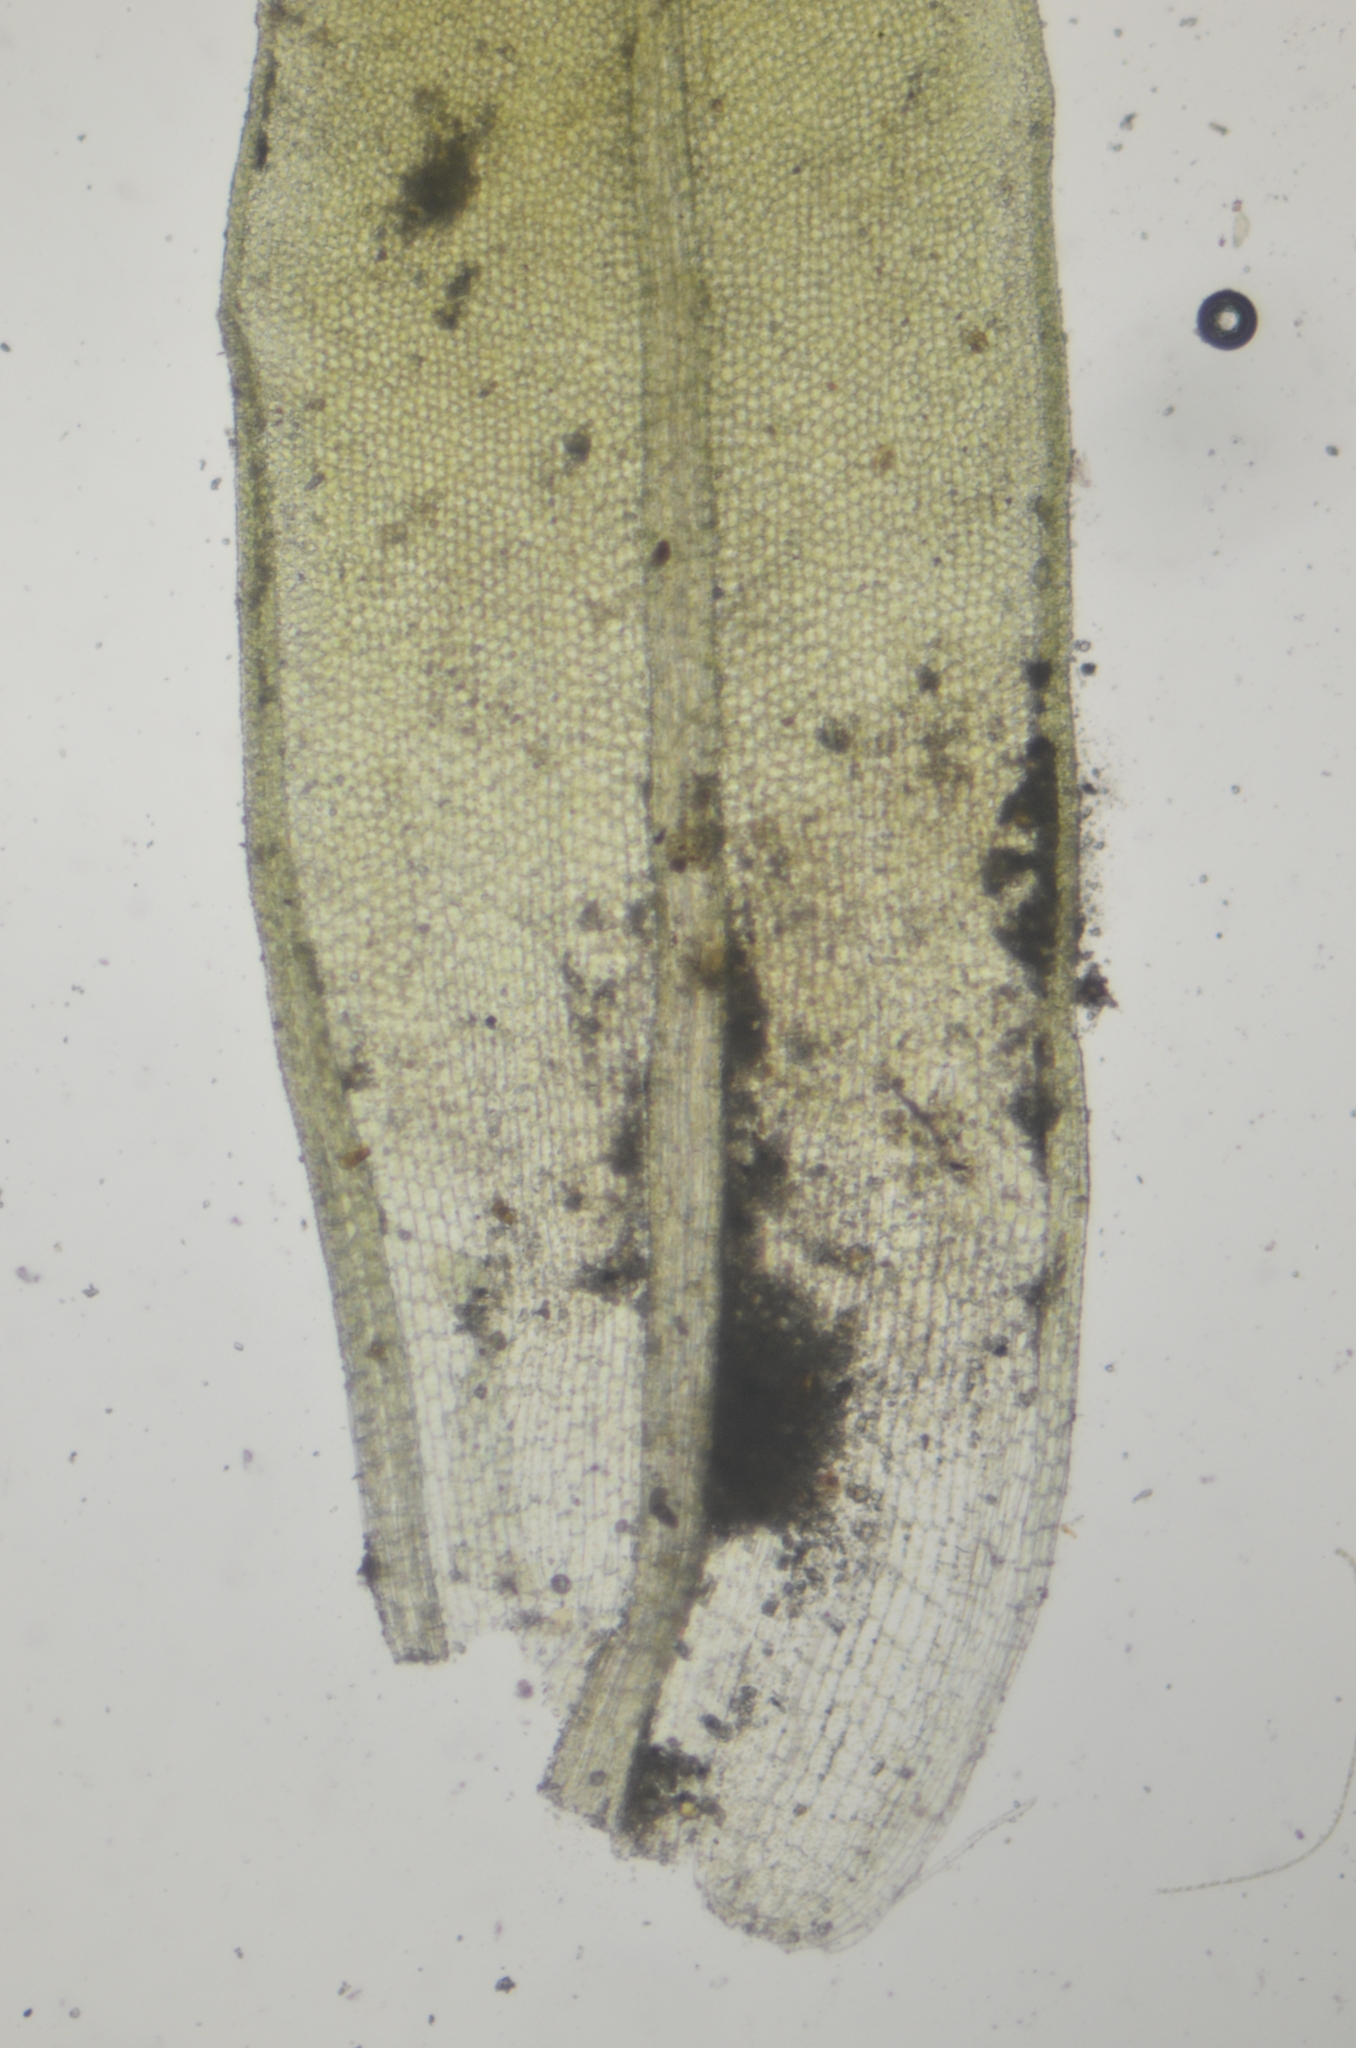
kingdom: Plantae
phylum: Bryophyta
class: Bryopsida
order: Pottiales
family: Pottiaceae
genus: Tortula
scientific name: Tortula bolanderi
